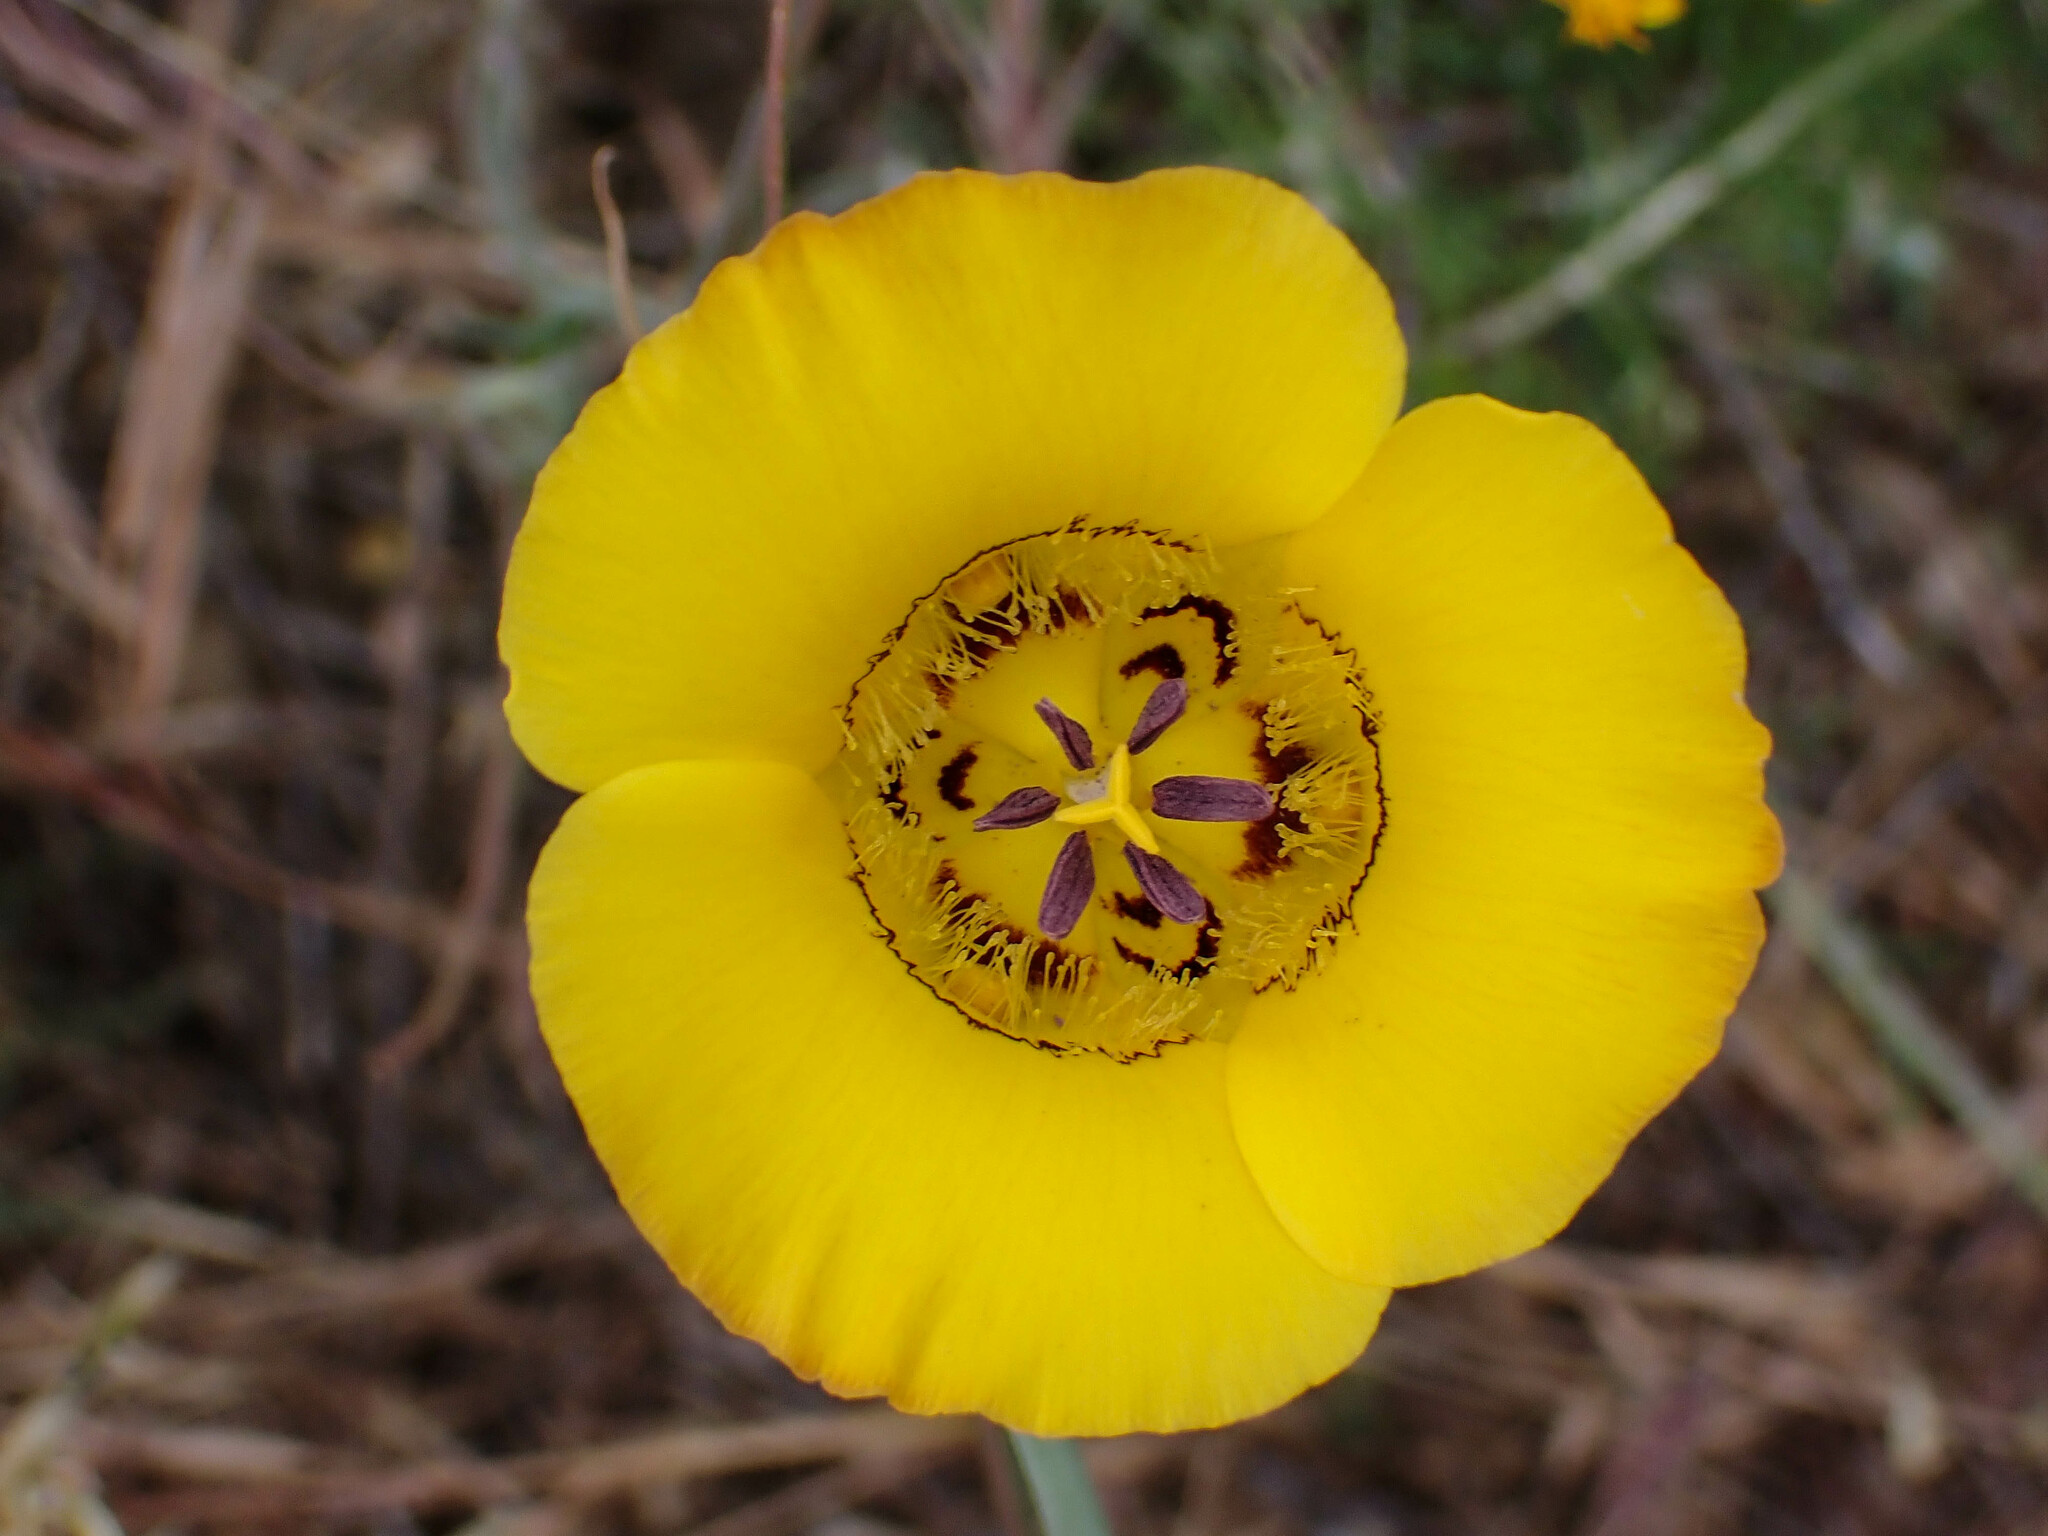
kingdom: Plantae
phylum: Tracheophyta
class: Liliopsida
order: Liliales
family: Liliaceae
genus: Calochortus
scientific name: Calochortus clavatus
